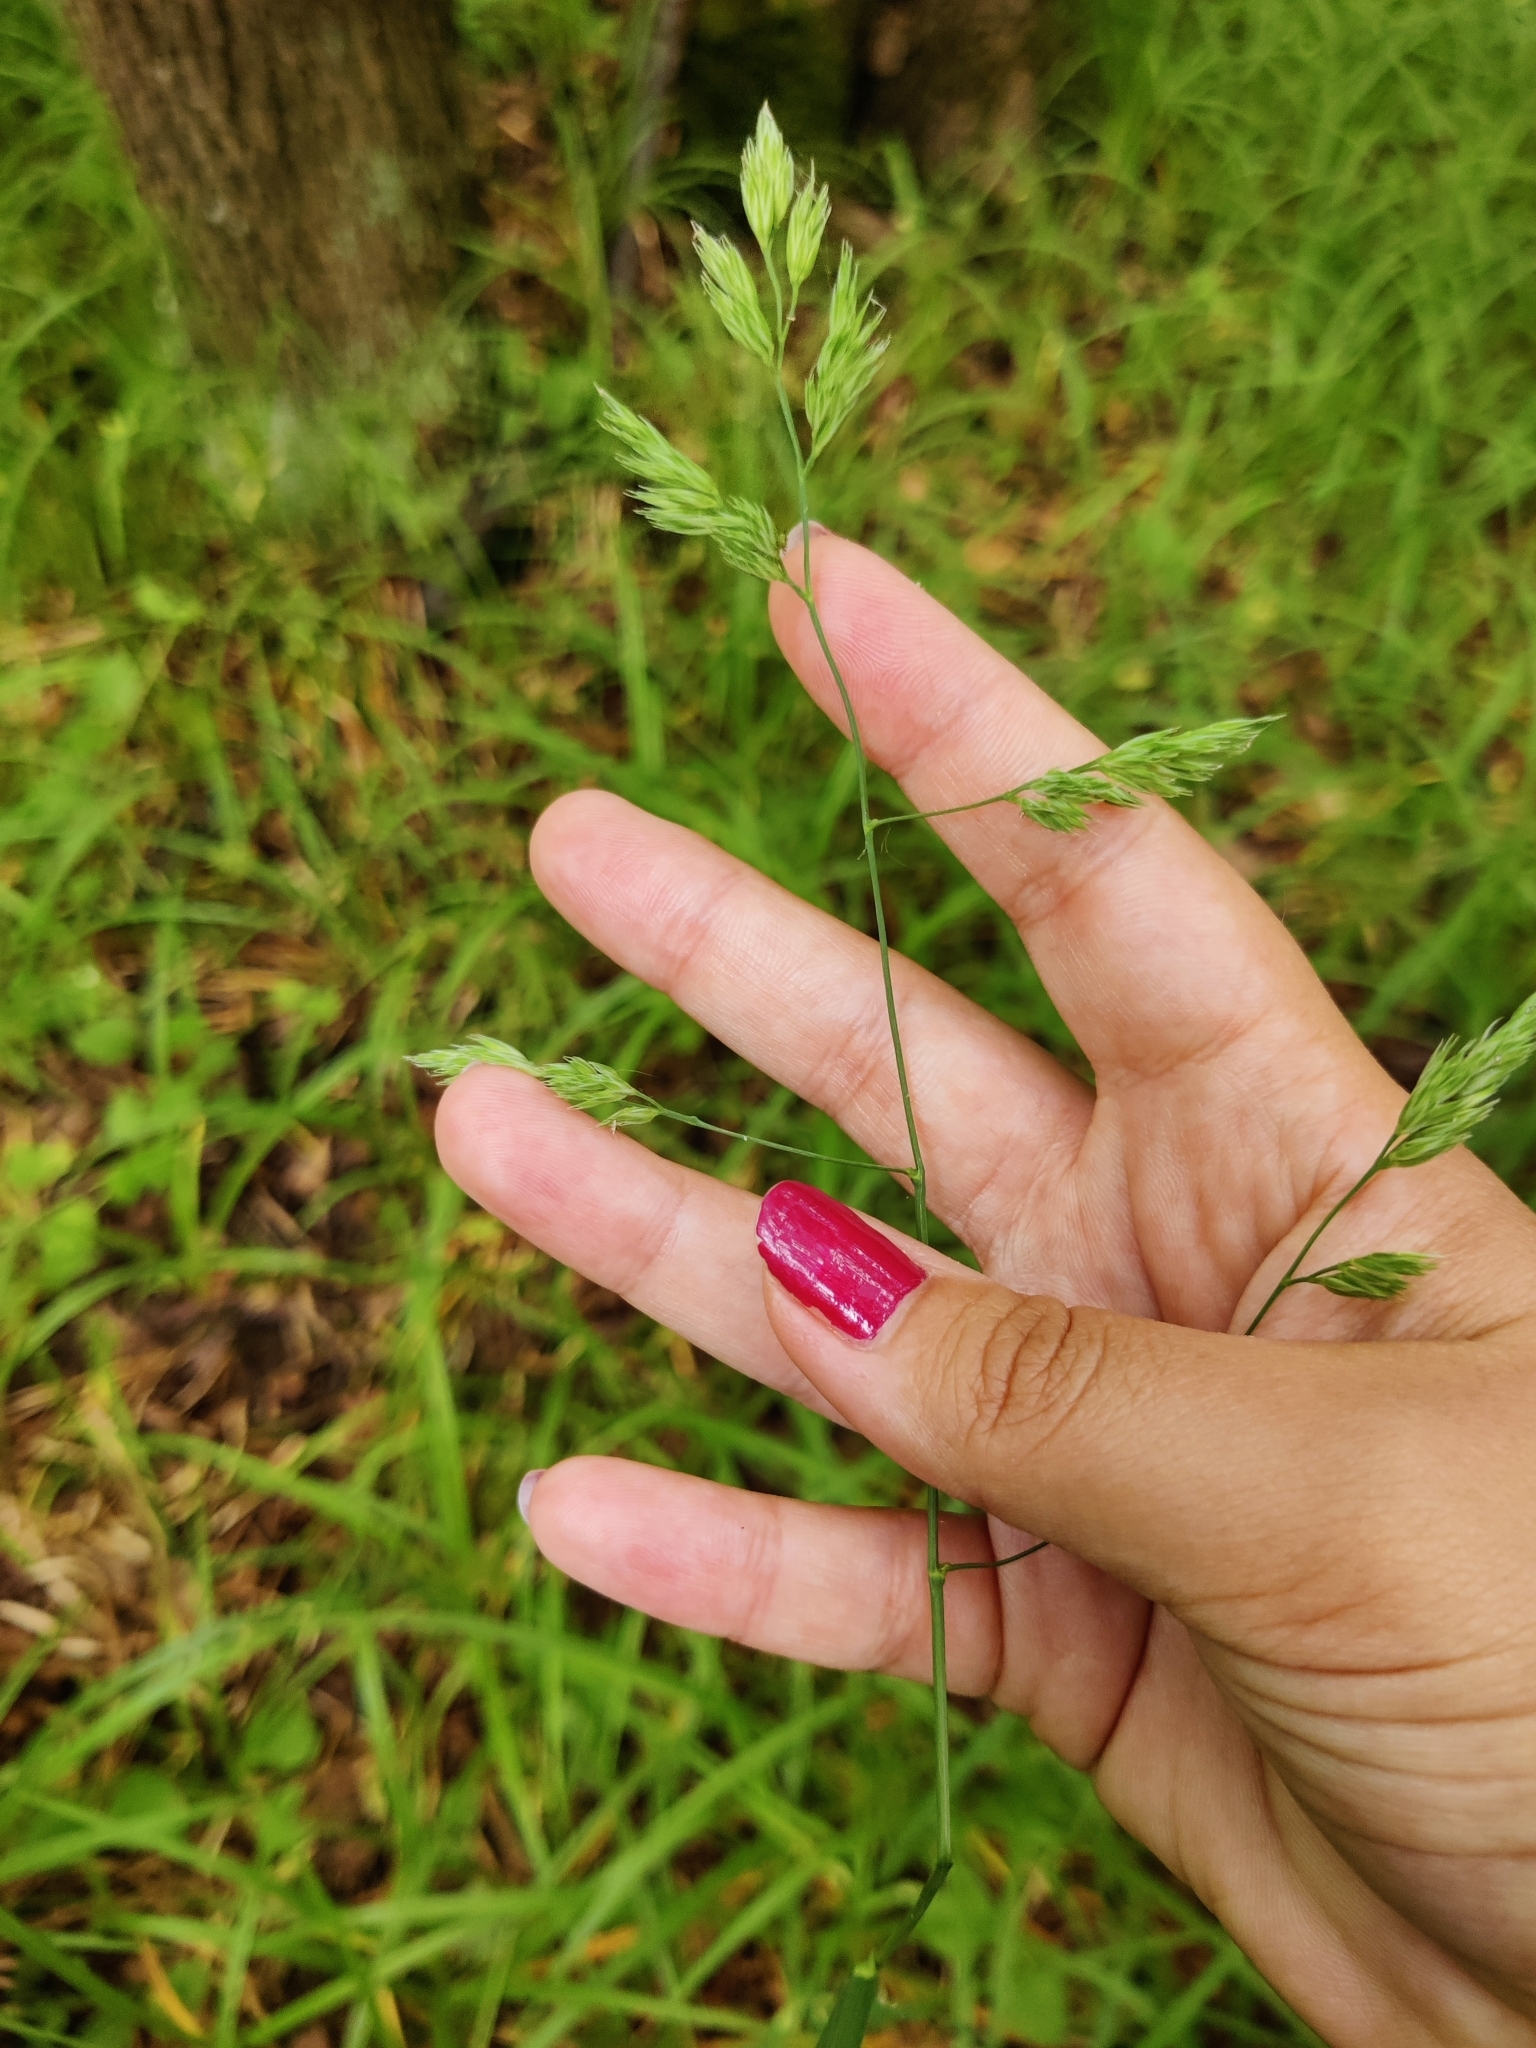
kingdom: Plantae
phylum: Tracheophyta
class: Liliopsida
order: Poales
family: Poaceae
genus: Dactylis
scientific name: Dactylis glomerata
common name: Orchardgrass
